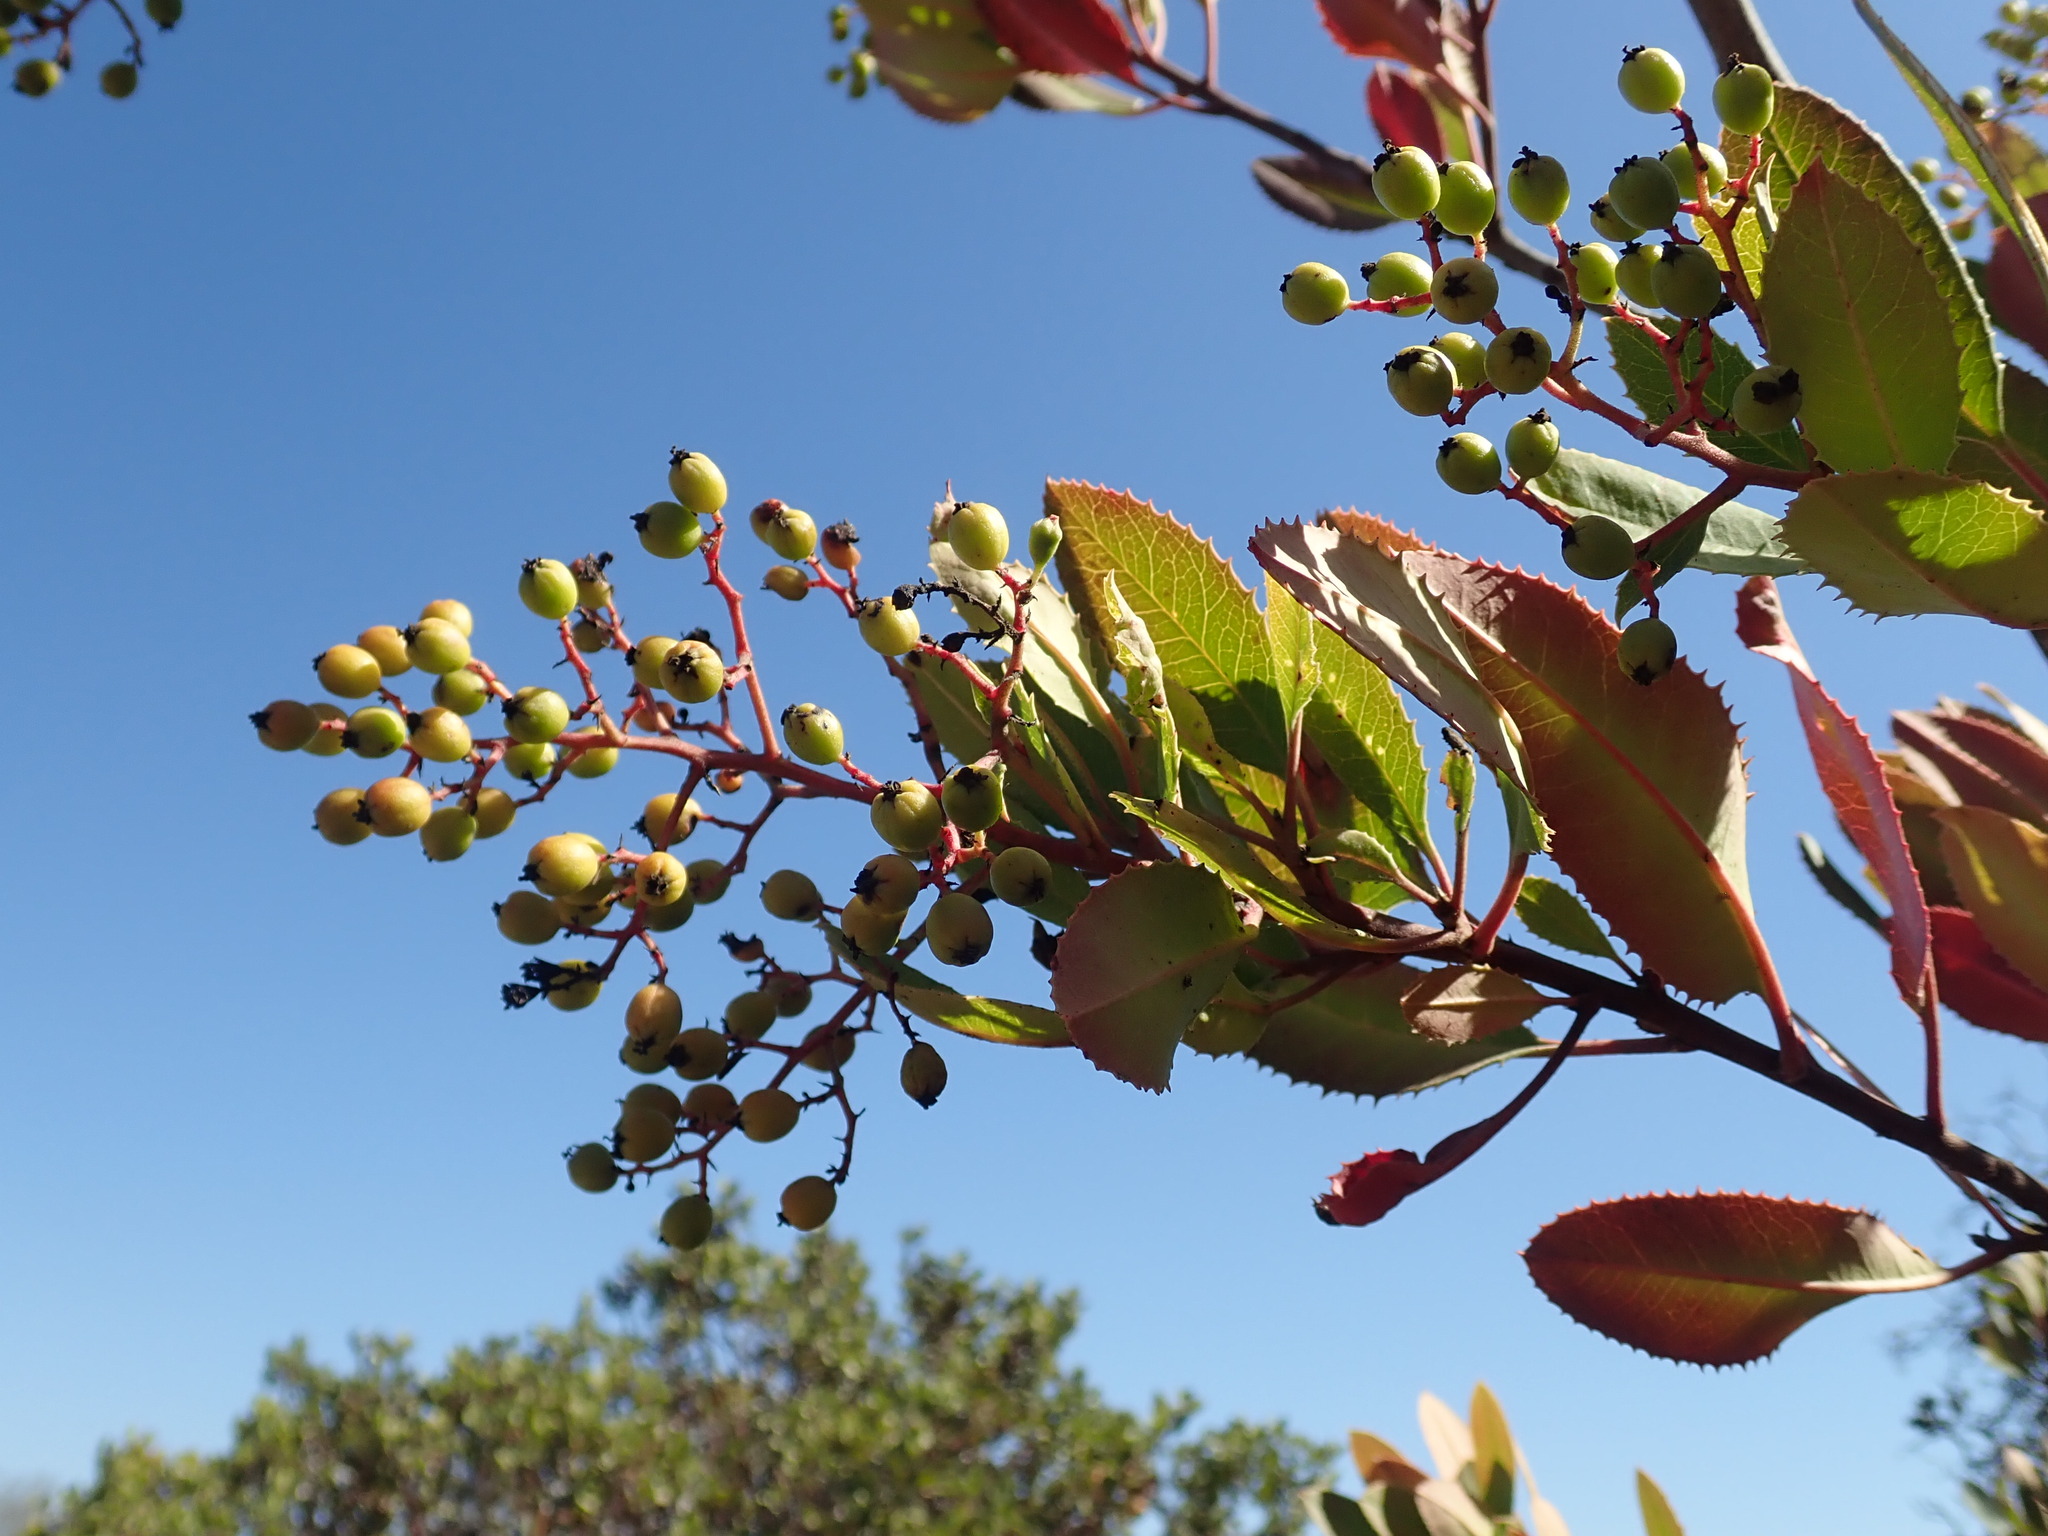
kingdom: Plantae
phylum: Tracheophyta
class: Magnoliopsida
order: Rosales
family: Rosaceae
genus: Heteromeles
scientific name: Heteromeles arbutifolia
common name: California-holly
